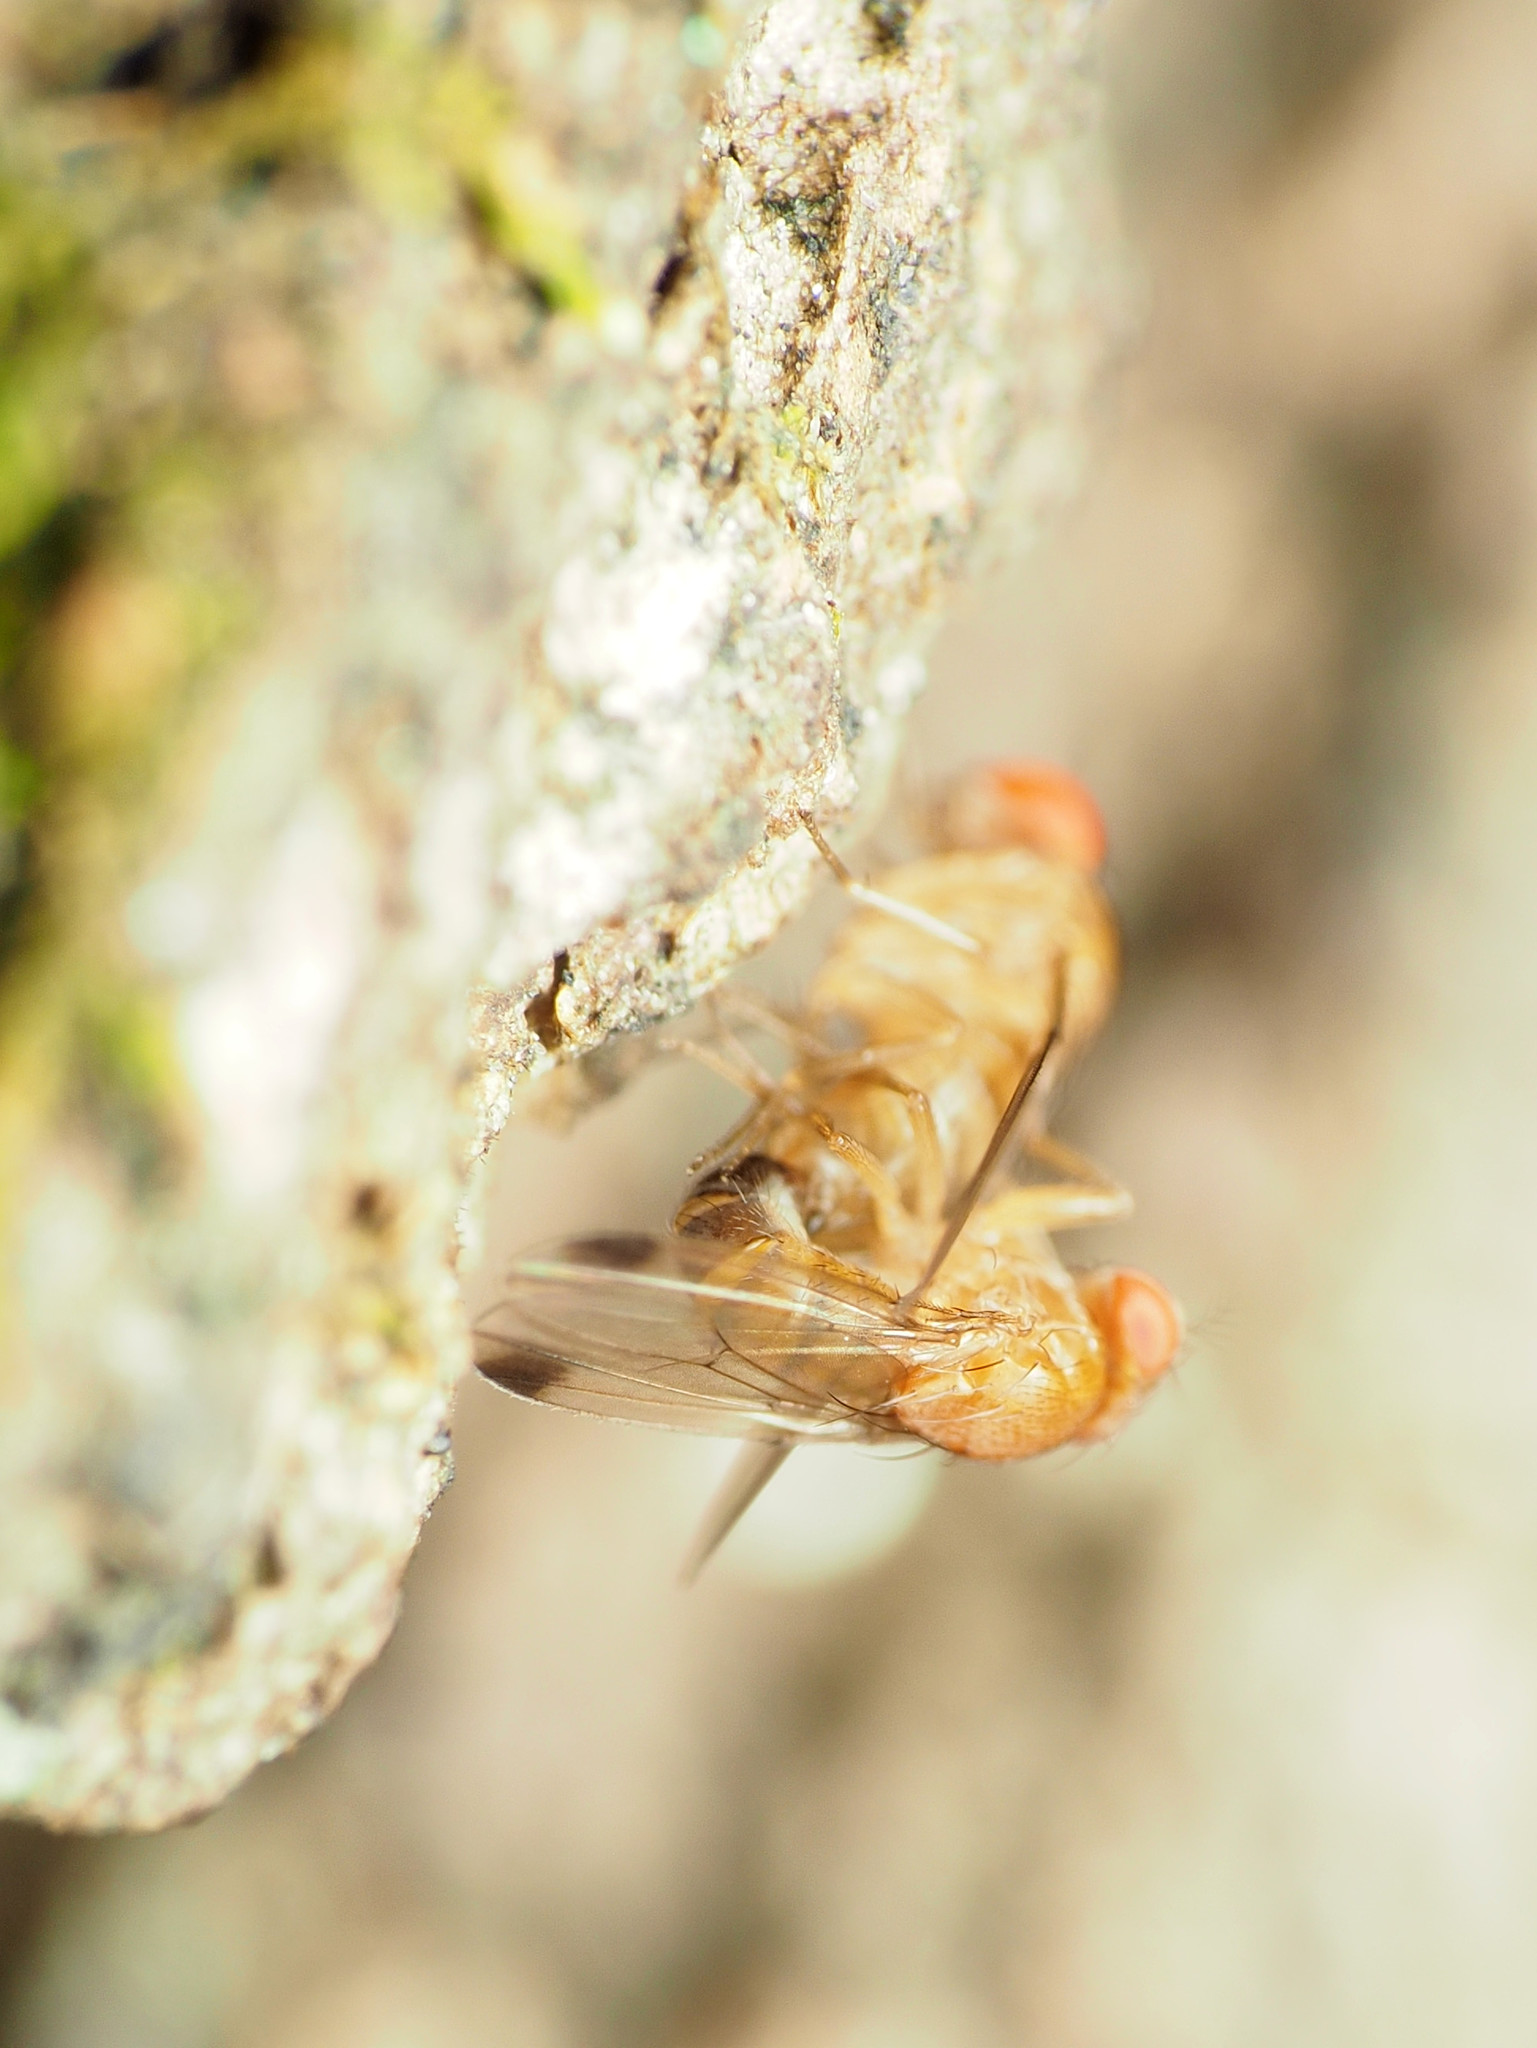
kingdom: Animalia
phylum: Arthropoda
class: Insecta
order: Diptera
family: Drosophilidae
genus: Drosophila
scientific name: Drosophila suzukii
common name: Spotted-wing drosophila
